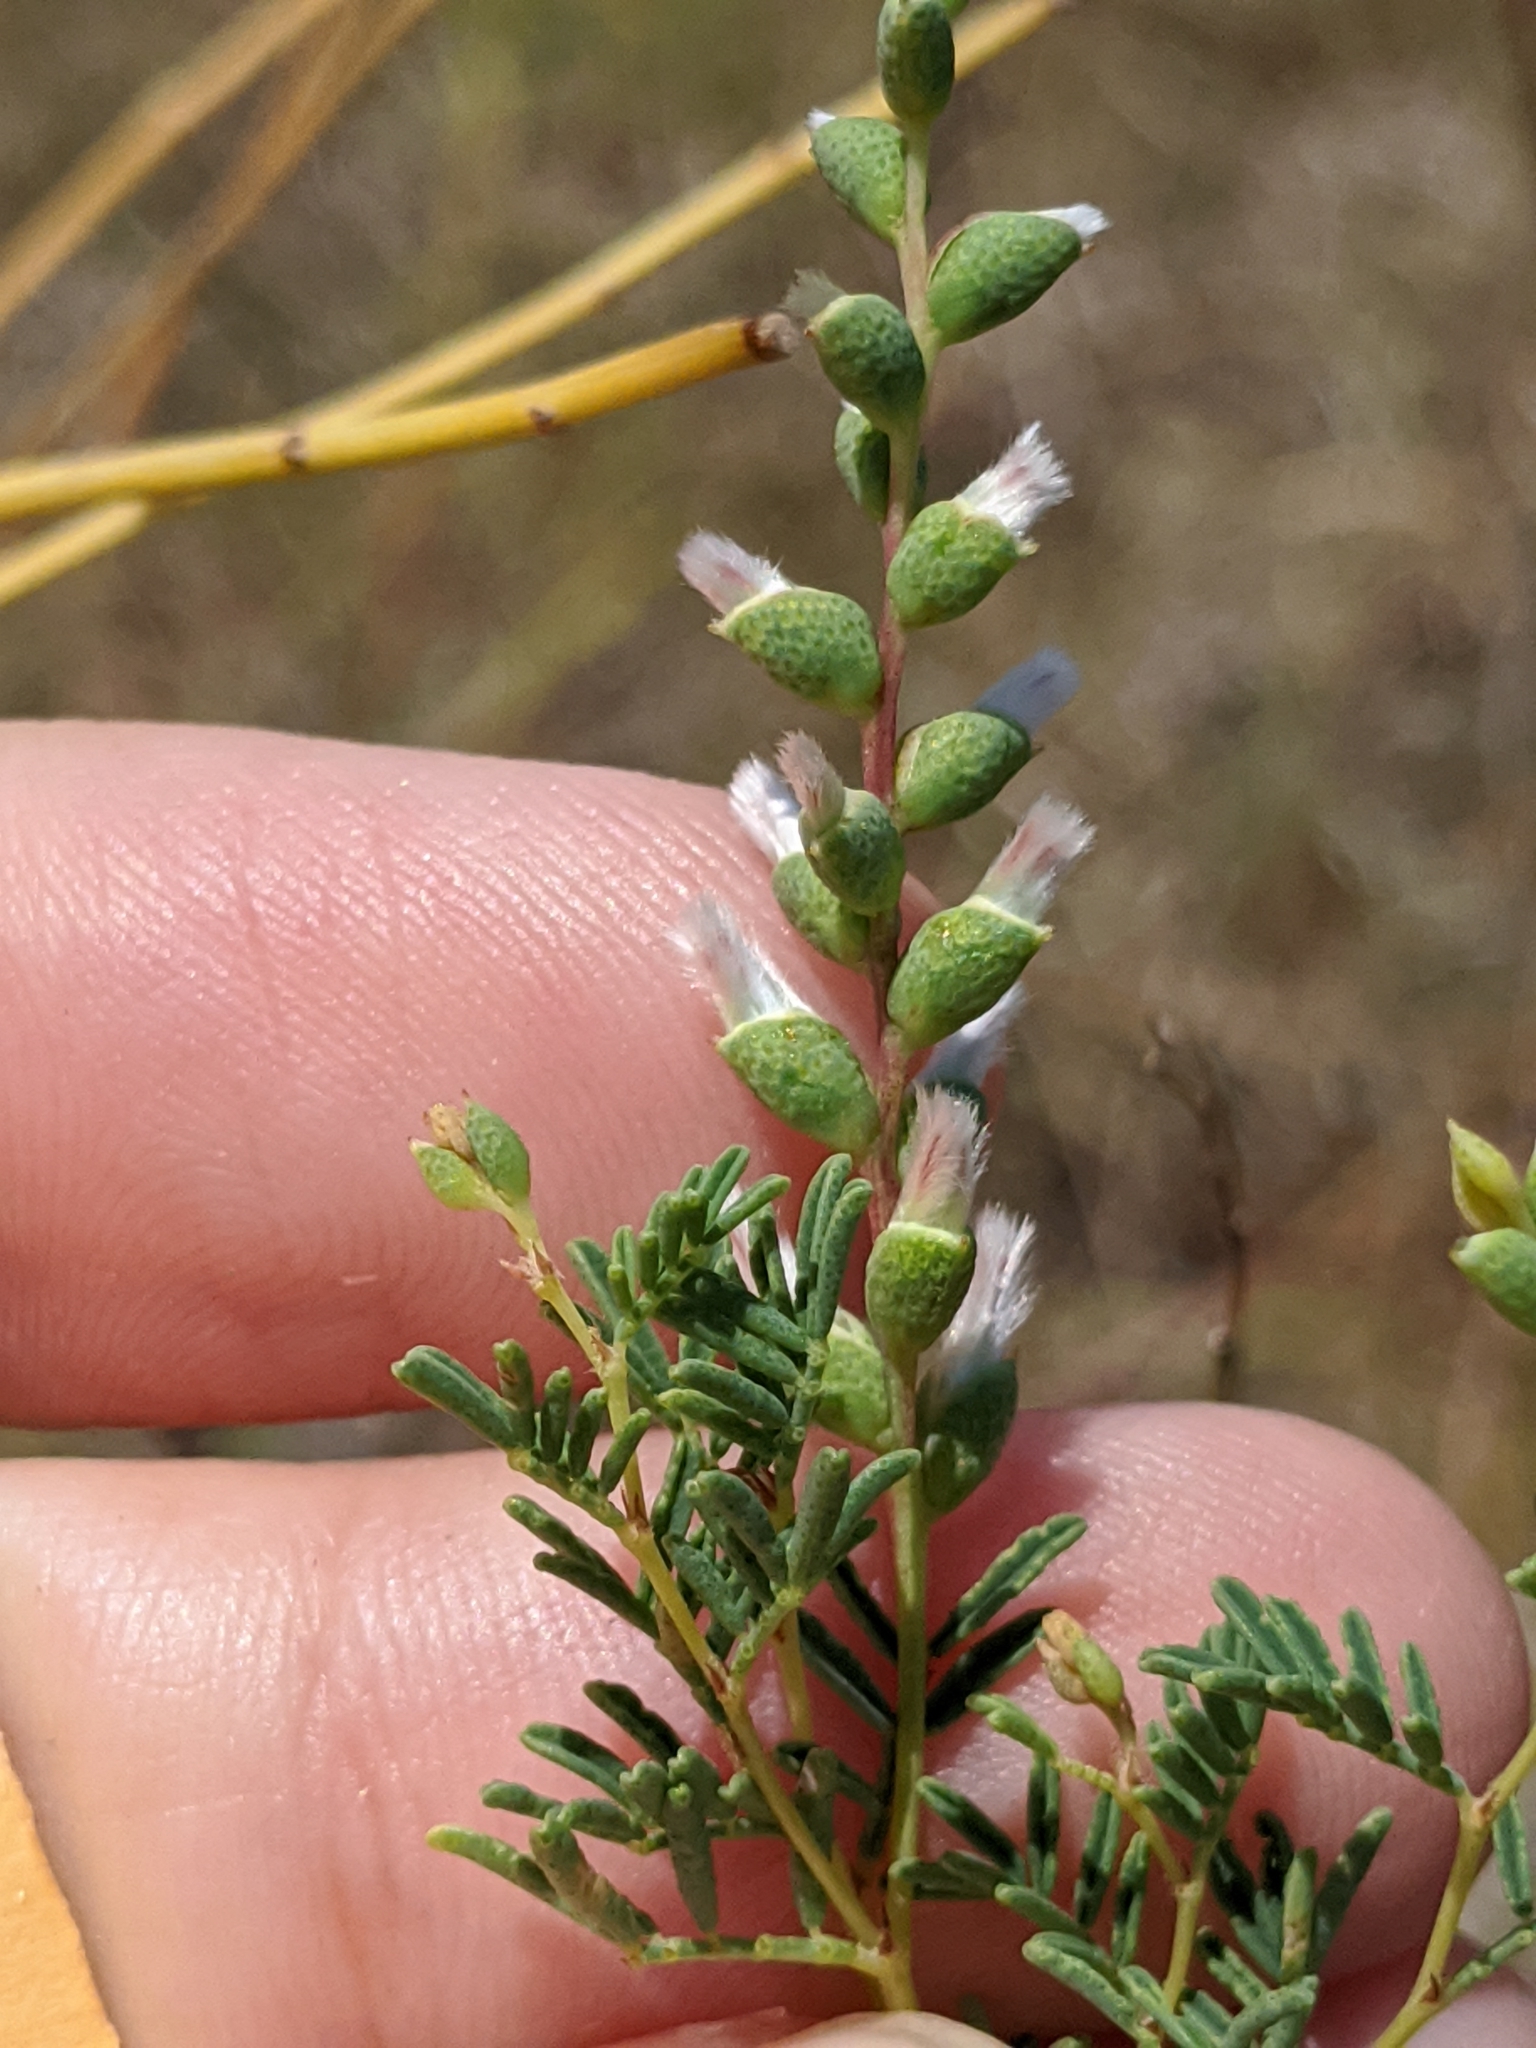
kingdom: Plantae
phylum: Tracheophyta
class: Magnoliopsida
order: Fabales
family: Fabaceae
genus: Dalea
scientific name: Dalea enneandra
